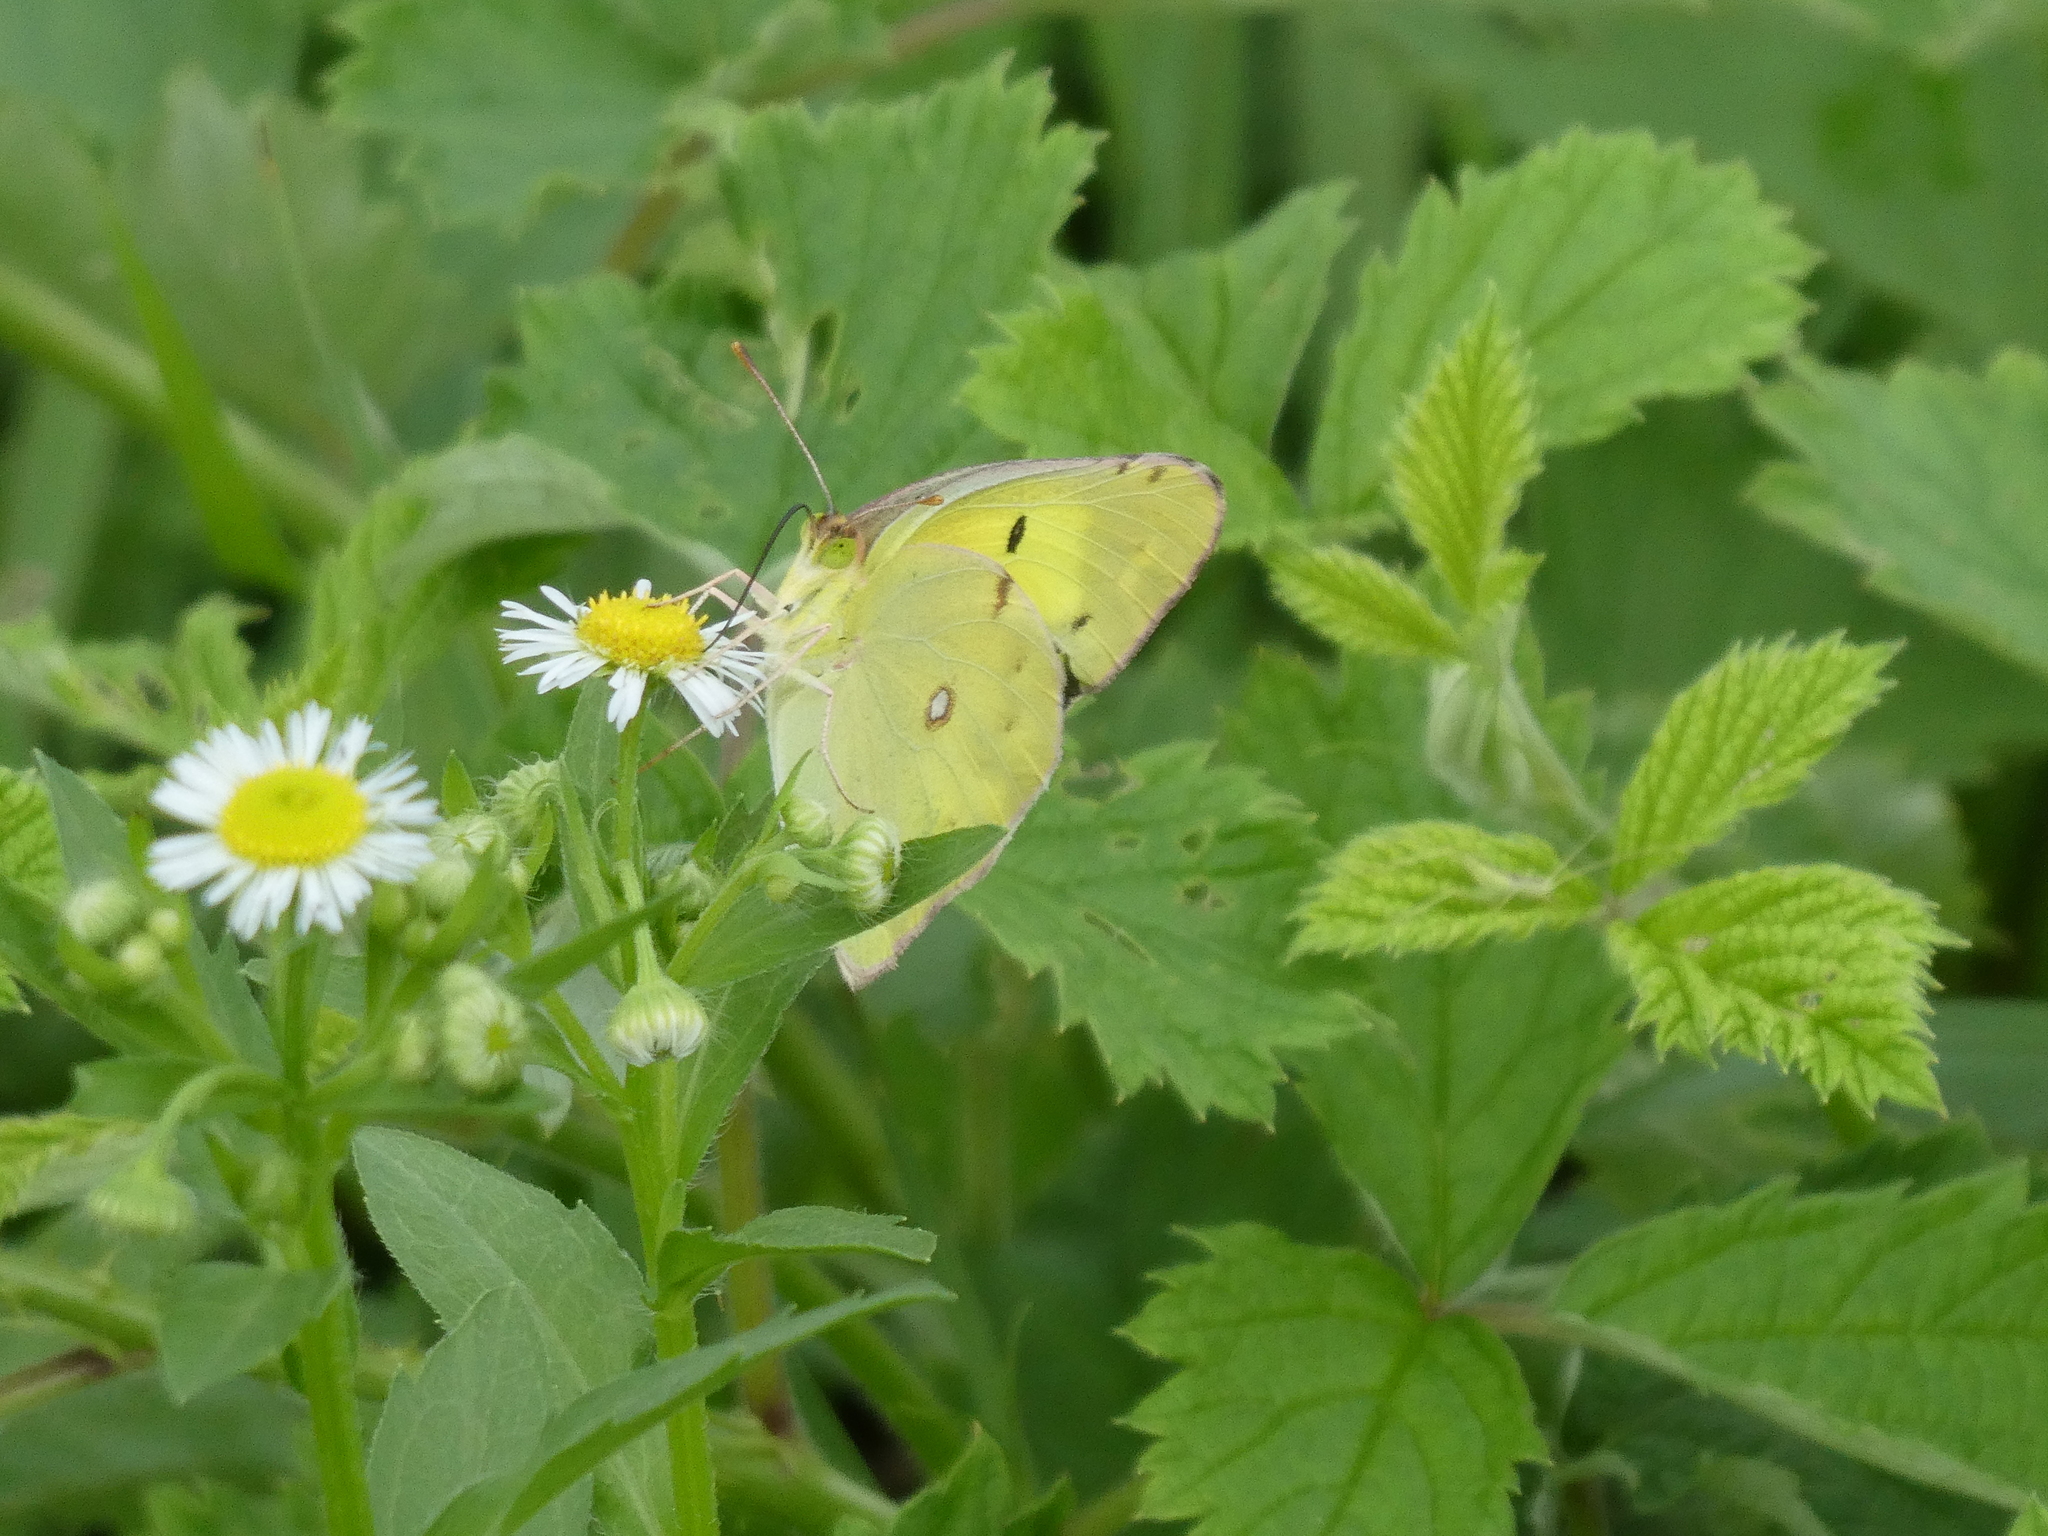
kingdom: Animalia
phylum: Arthropoda
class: Insecta
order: Lepidoptera
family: Pieridae
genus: Colias
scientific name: Colias poliographus
